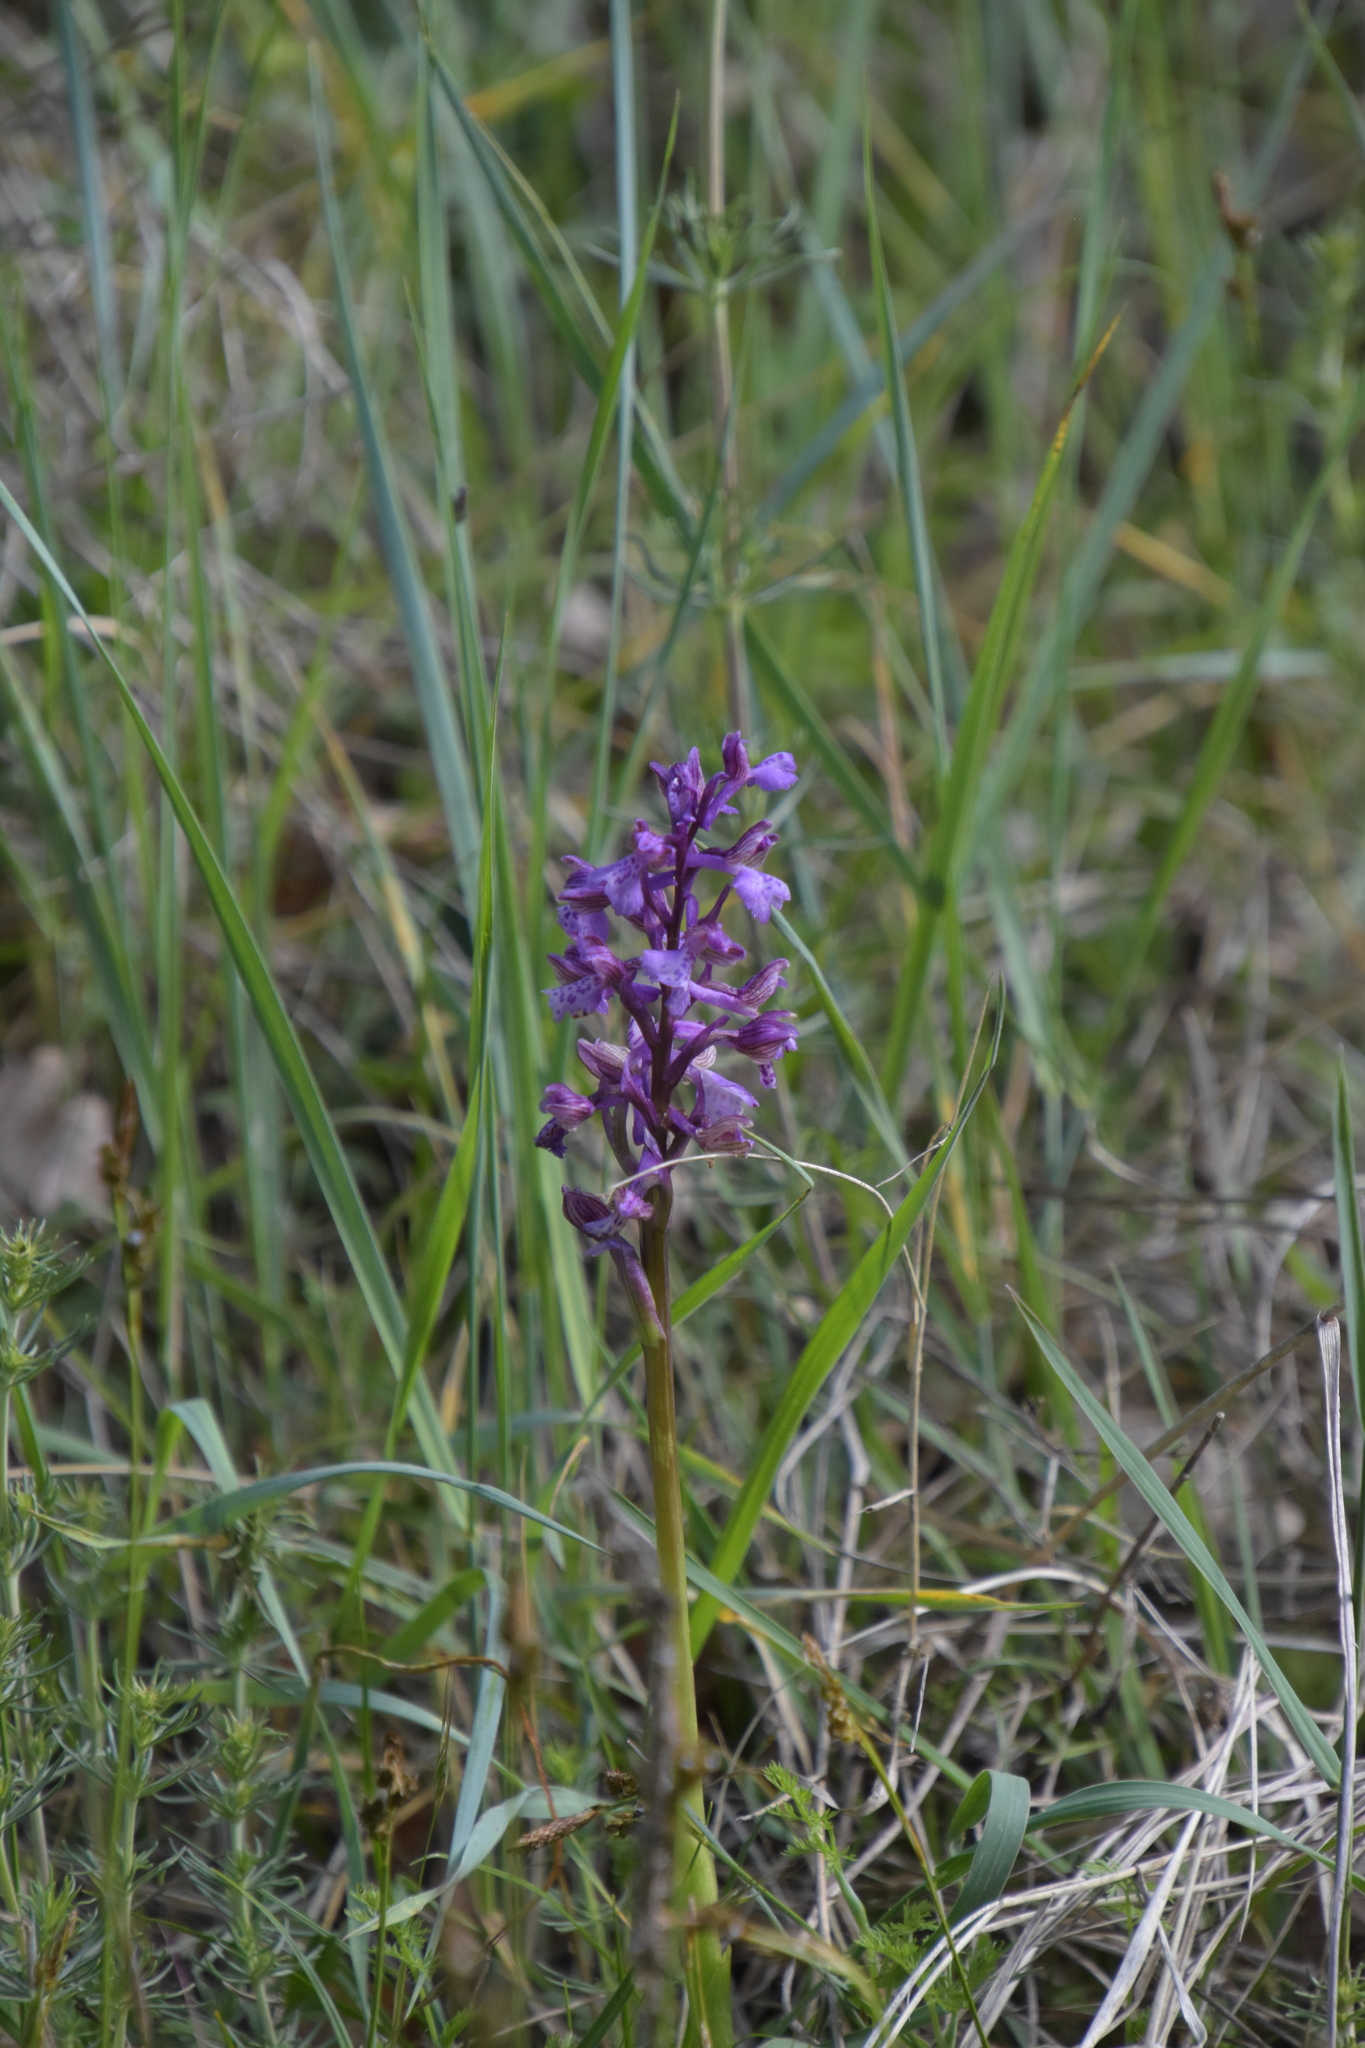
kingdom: Plantae
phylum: Tracheophyta
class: Liliopsida
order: Asparagales
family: Orchidaceae
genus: Anacamptis
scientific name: Anacamptis morio
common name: Green-winged orchid
